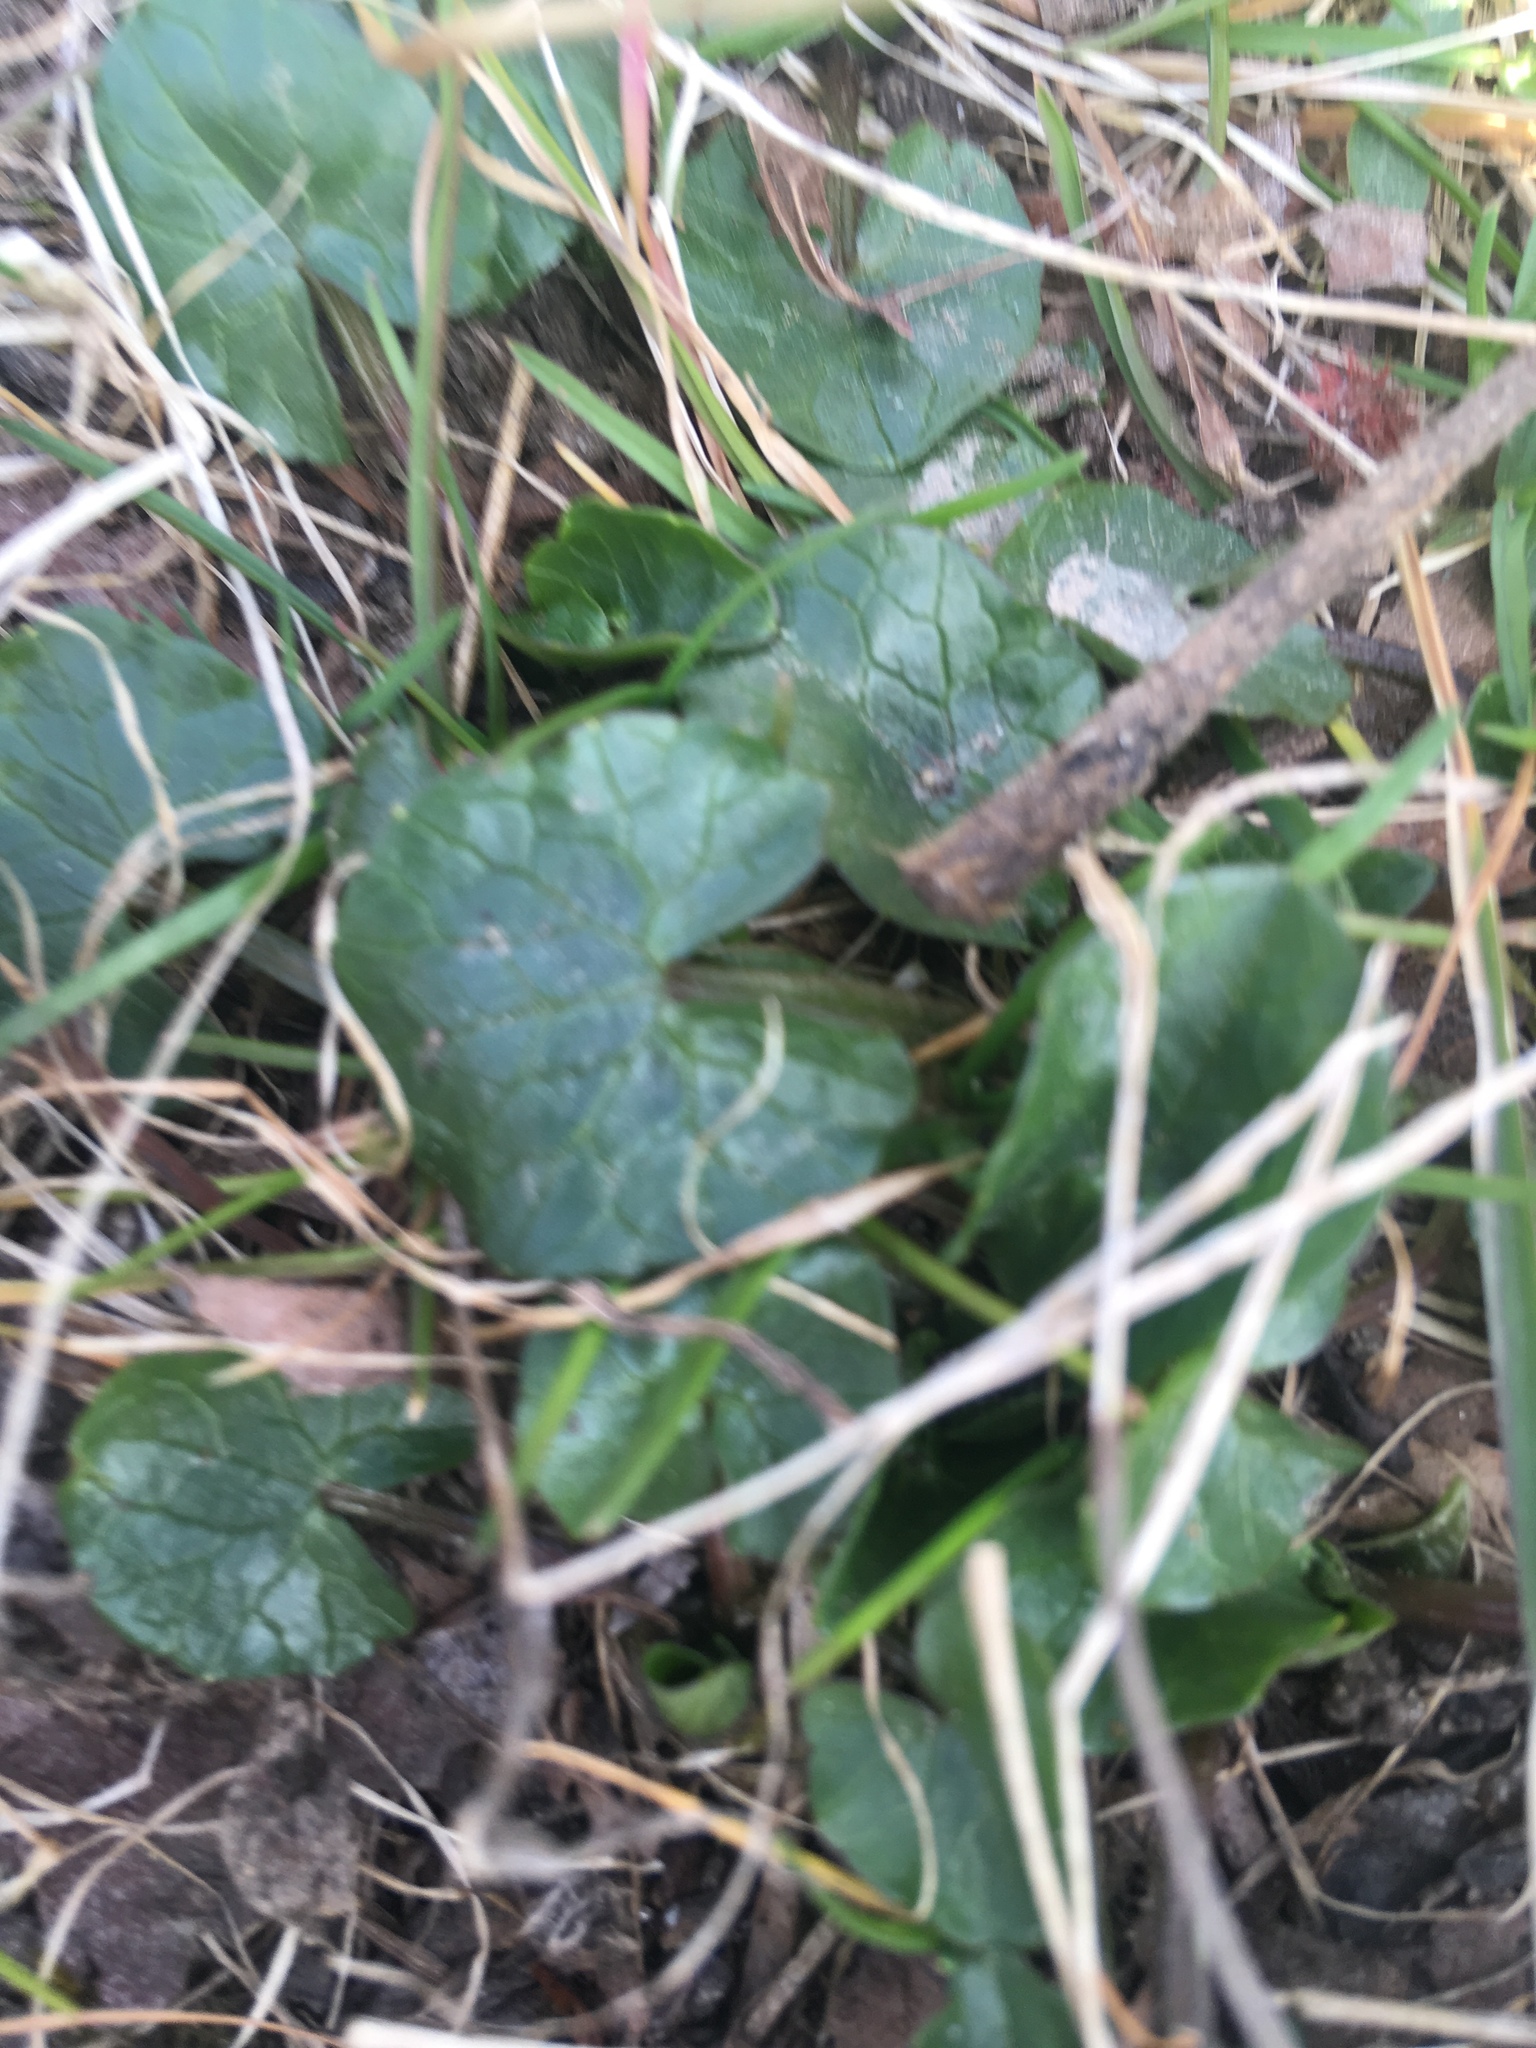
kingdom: Plantae
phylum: Tracheophyta
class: Magnoliopsida
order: Ranunculales
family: Ranunculaceae
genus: Ficaria
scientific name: Ficaria verna
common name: Lesser celandine
